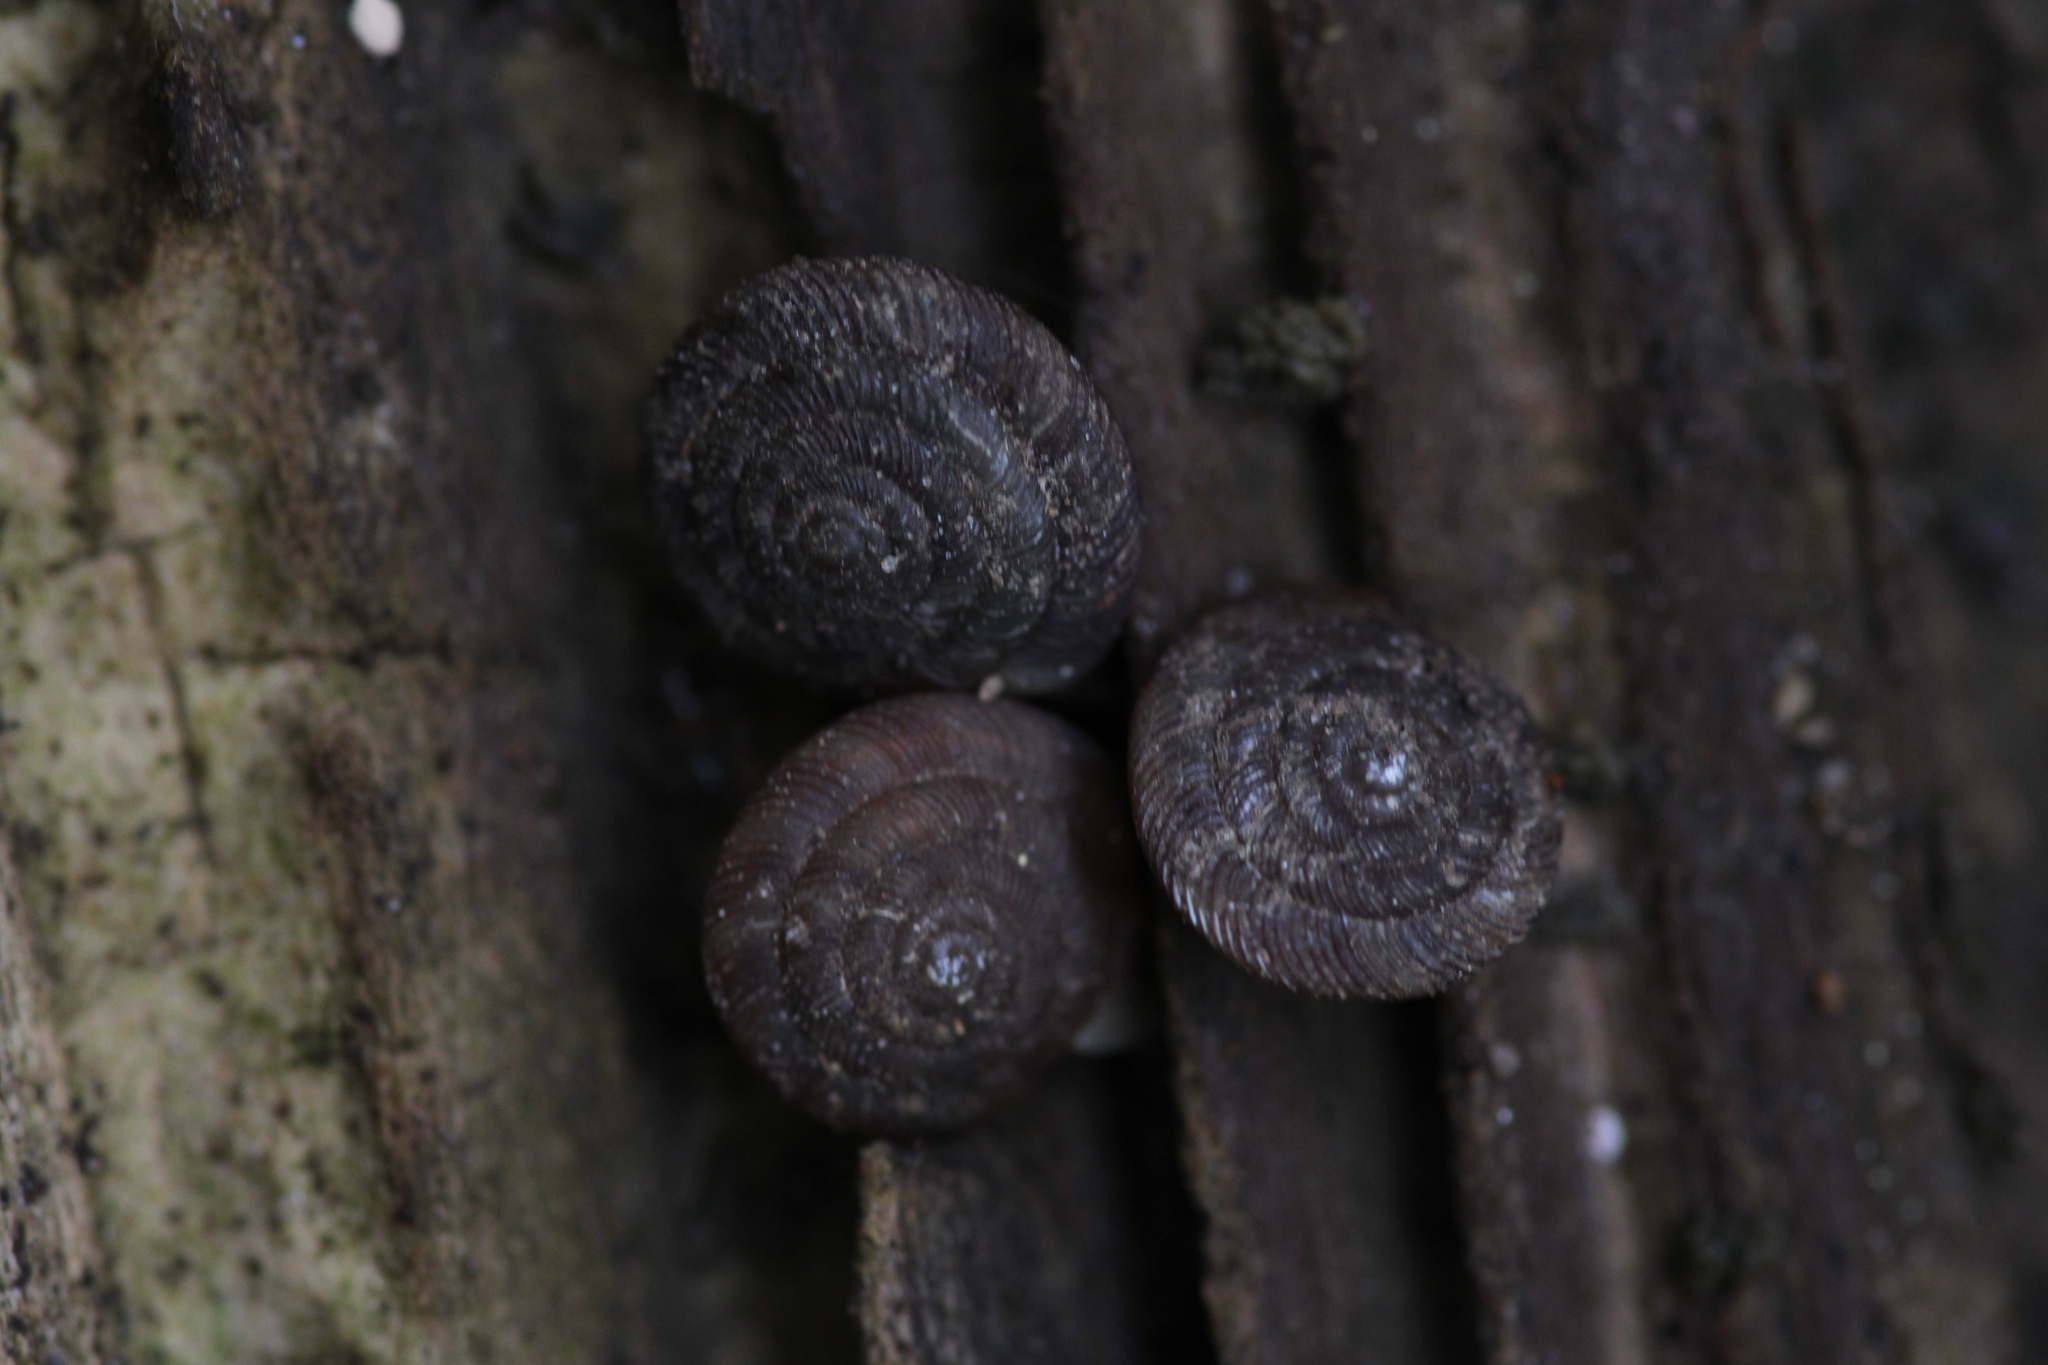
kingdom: Animalia
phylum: Mollusca
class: Gastropoda
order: Stylommatophora
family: Discidae
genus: Discus
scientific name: Discus rotundatus
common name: Rounded snail
